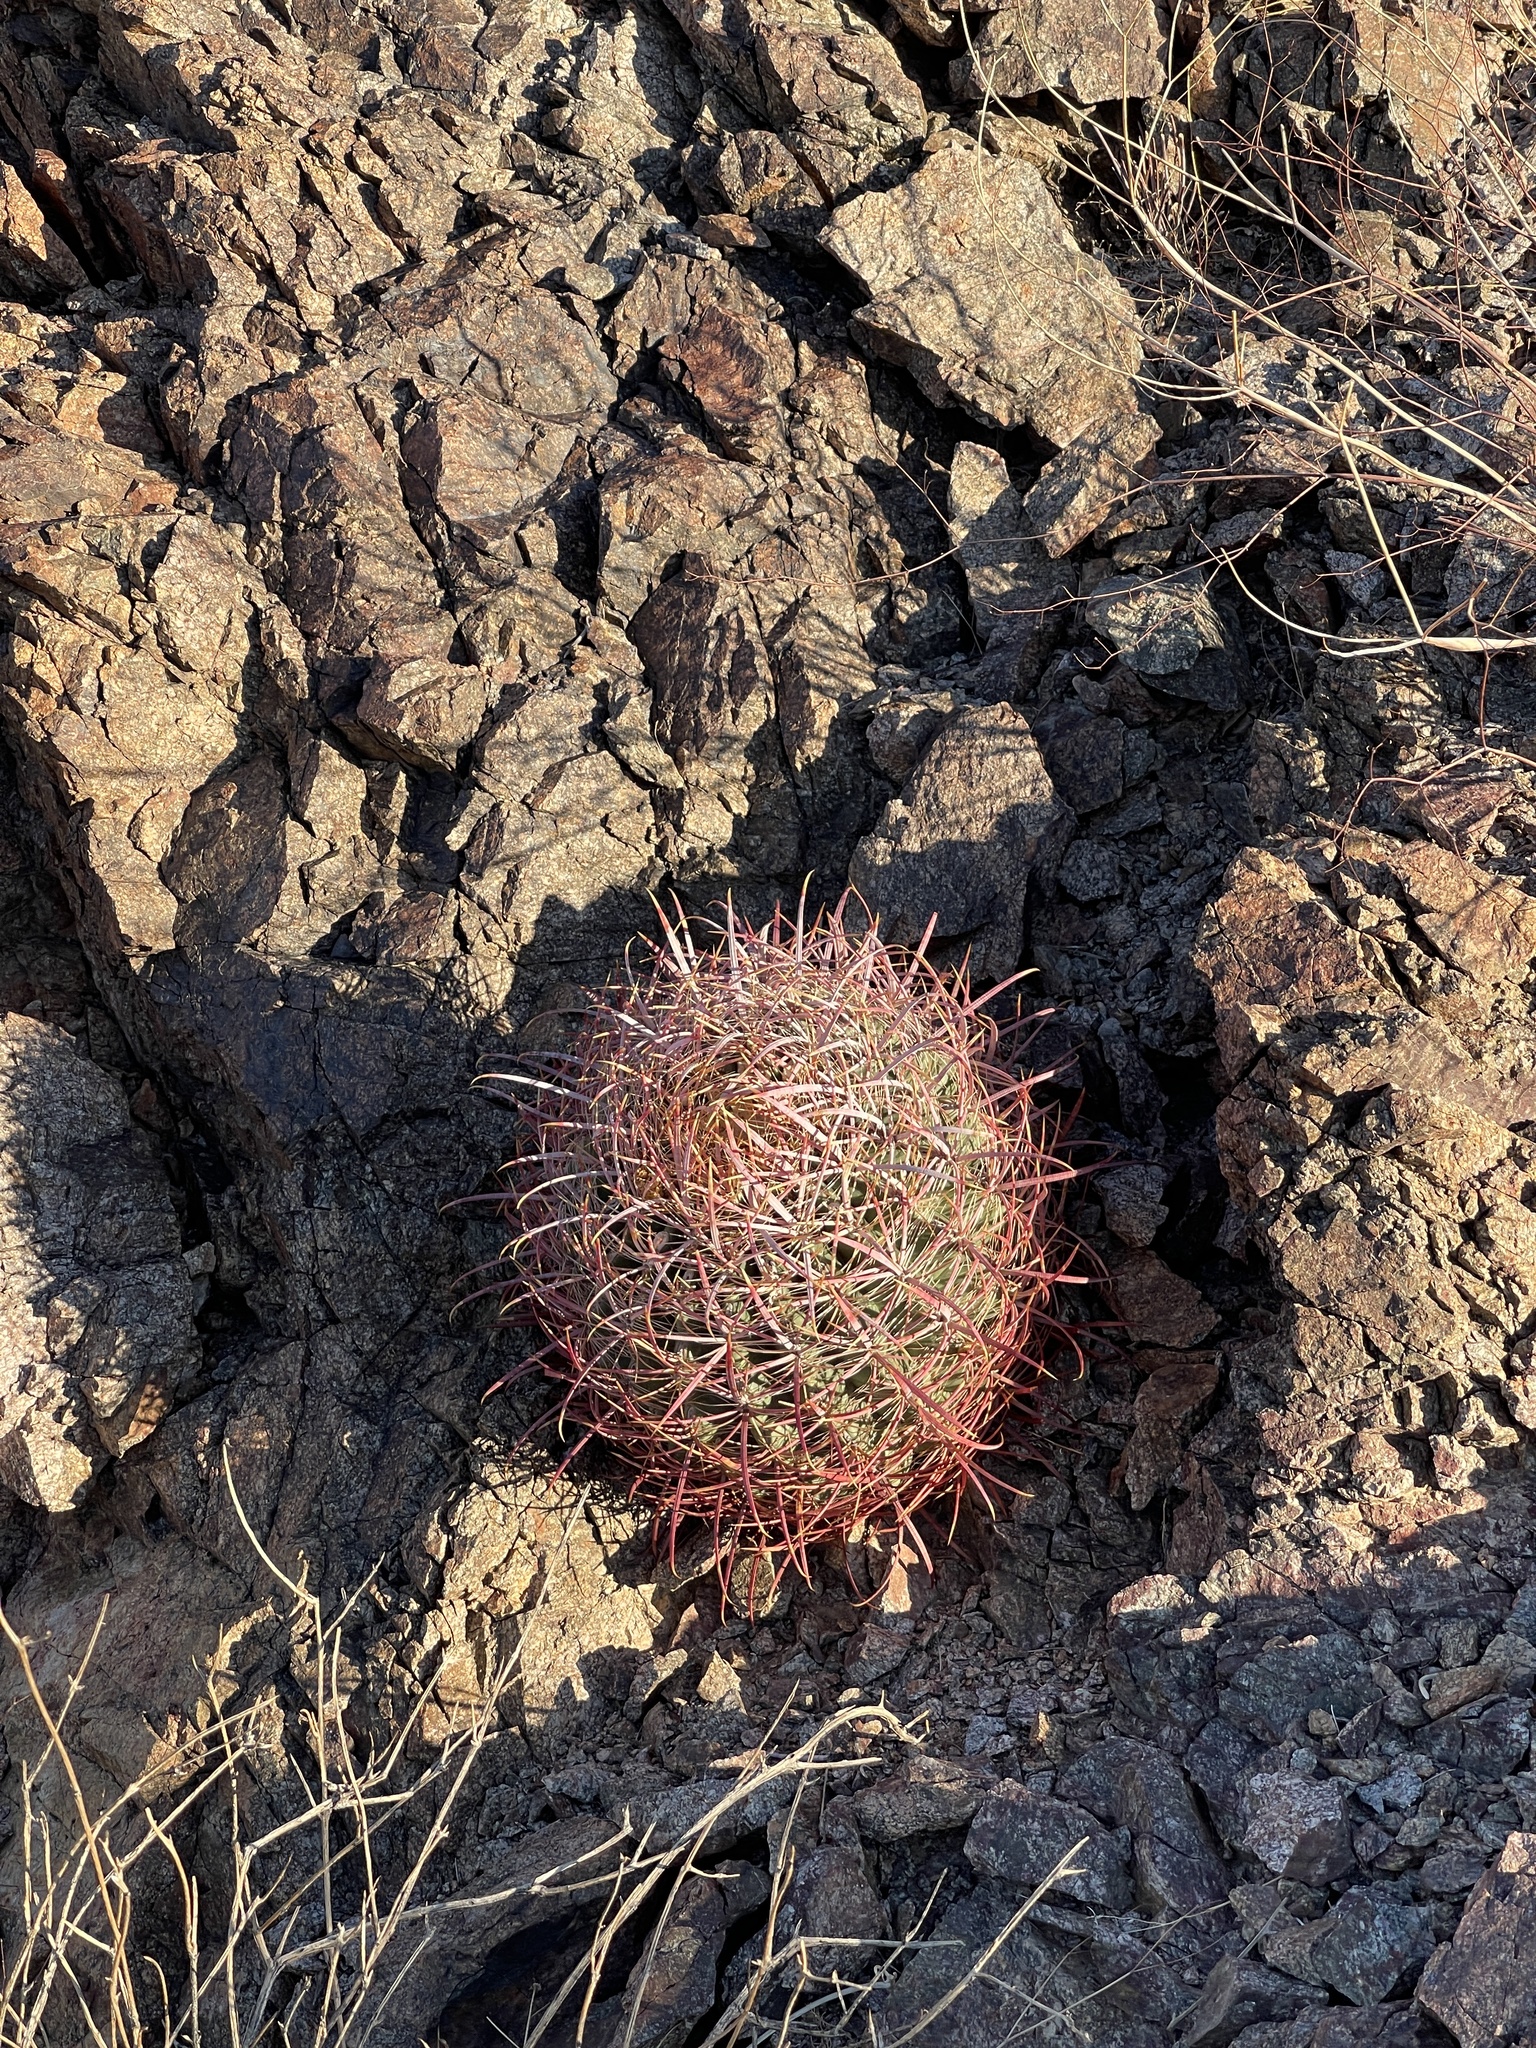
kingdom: Plantae
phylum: Tracheophyta
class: Magnoliopsida
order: Caryophyllales
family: Cactaceae
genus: Ferocactus
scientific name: Ferocactus cylindraceus
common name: California barrel cactus
